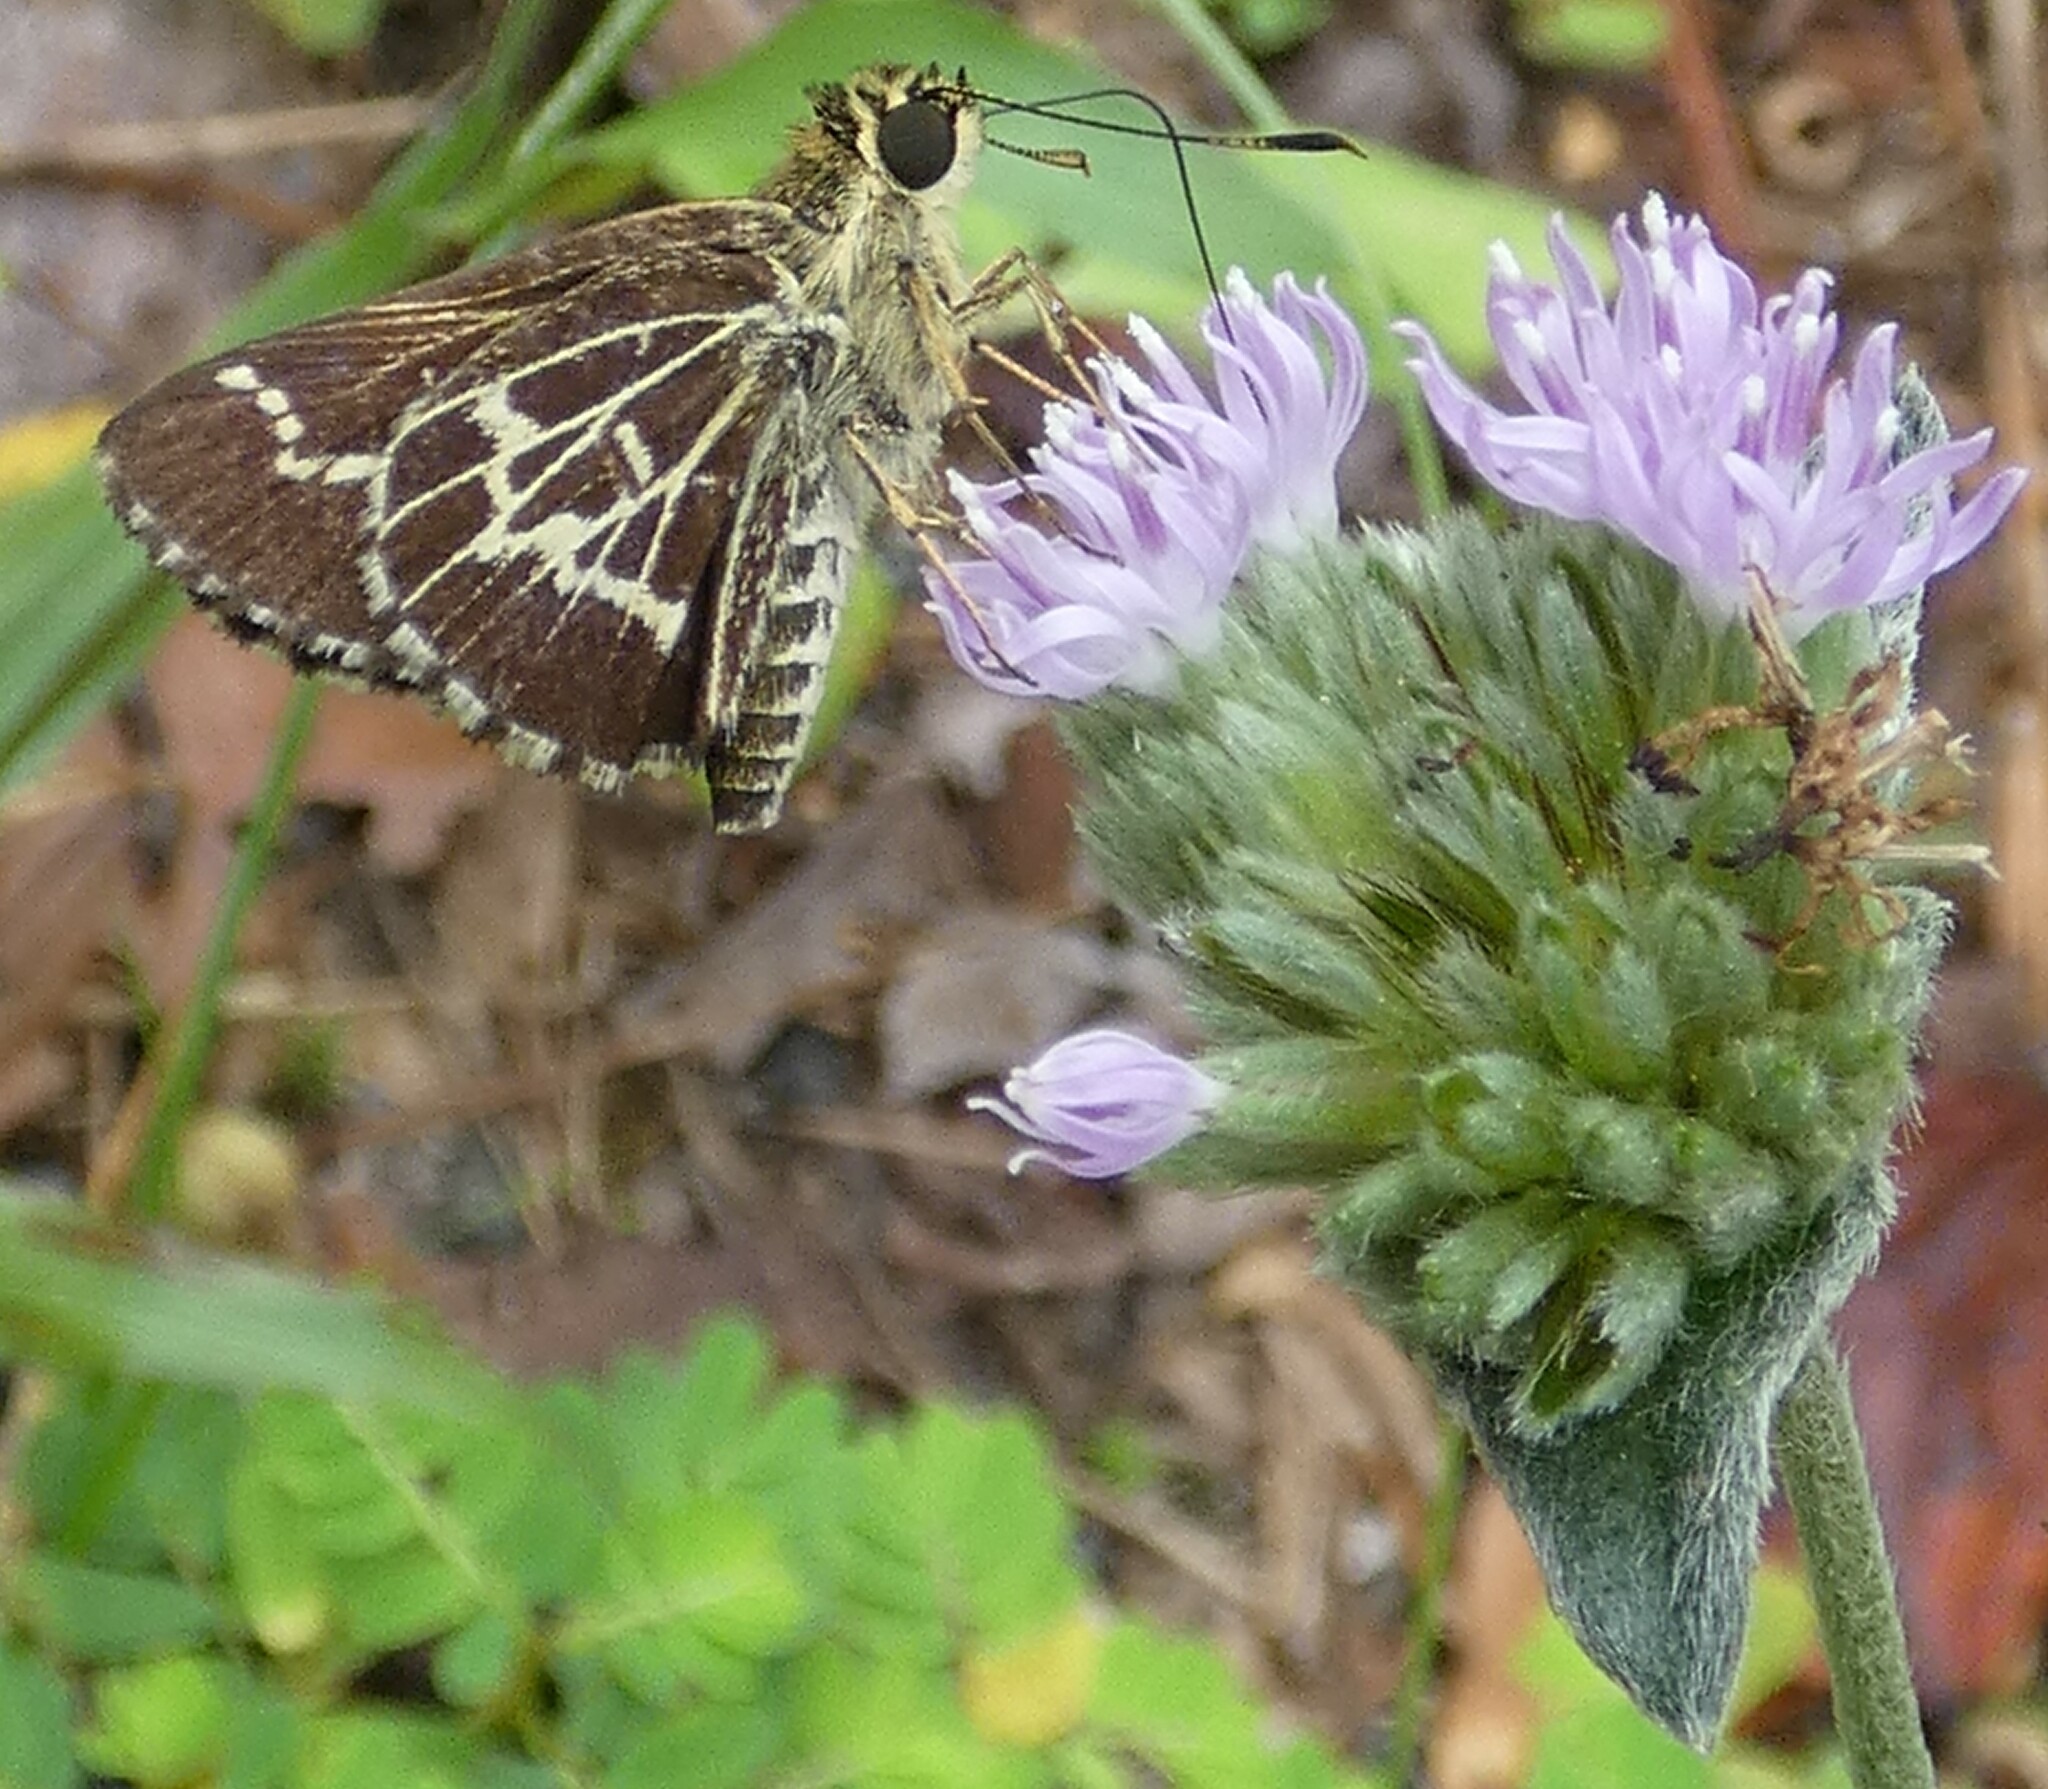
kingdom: Animalia
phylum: Arthropoda
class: Insecta
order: Lepidoptera
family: Hesperiidae
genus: Mastor
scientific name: Mastor aesculapius
